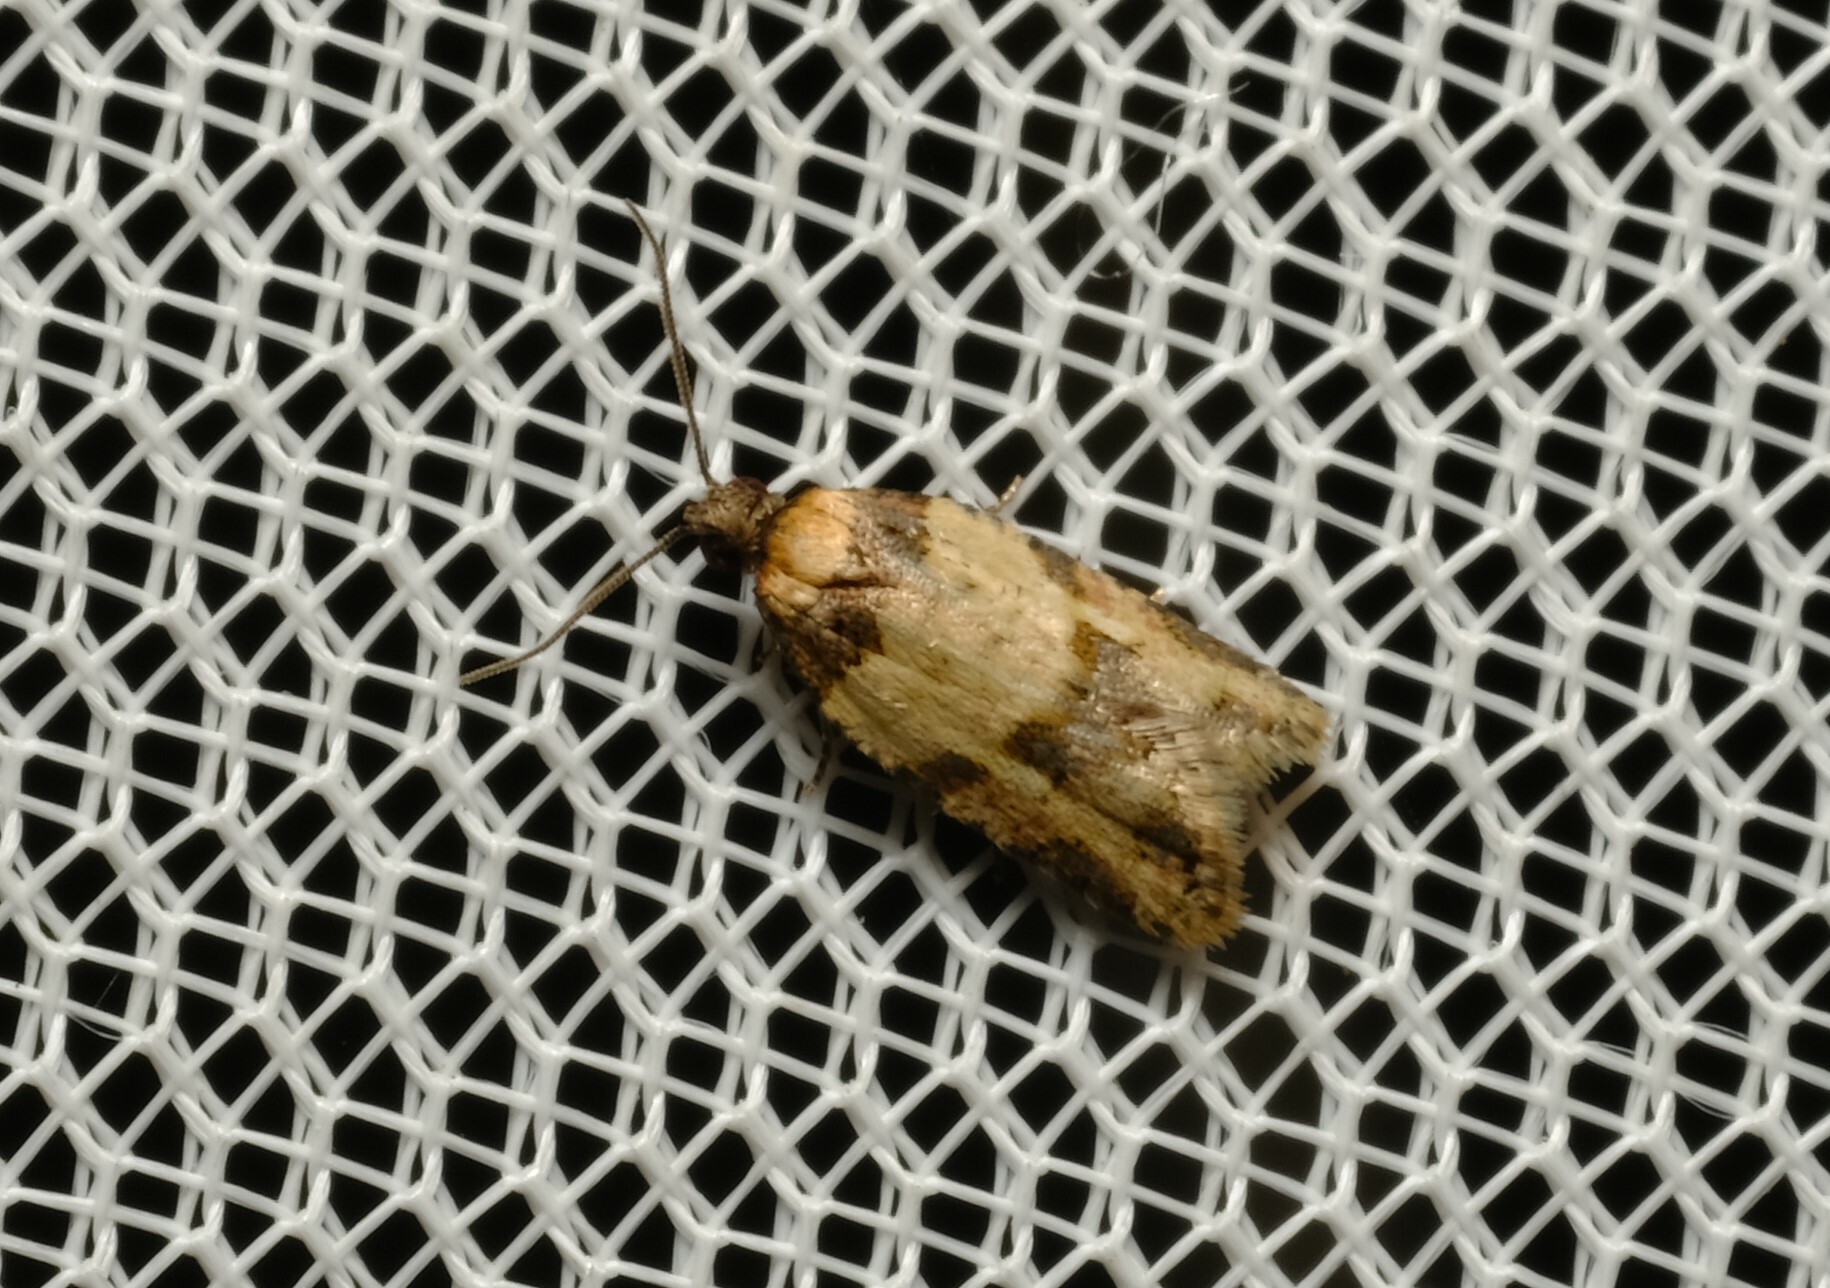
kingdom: Animalia
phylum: Arthropoda
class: Insecta
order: Lepidoptera
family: Tortricidae
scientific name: Tortricidae
